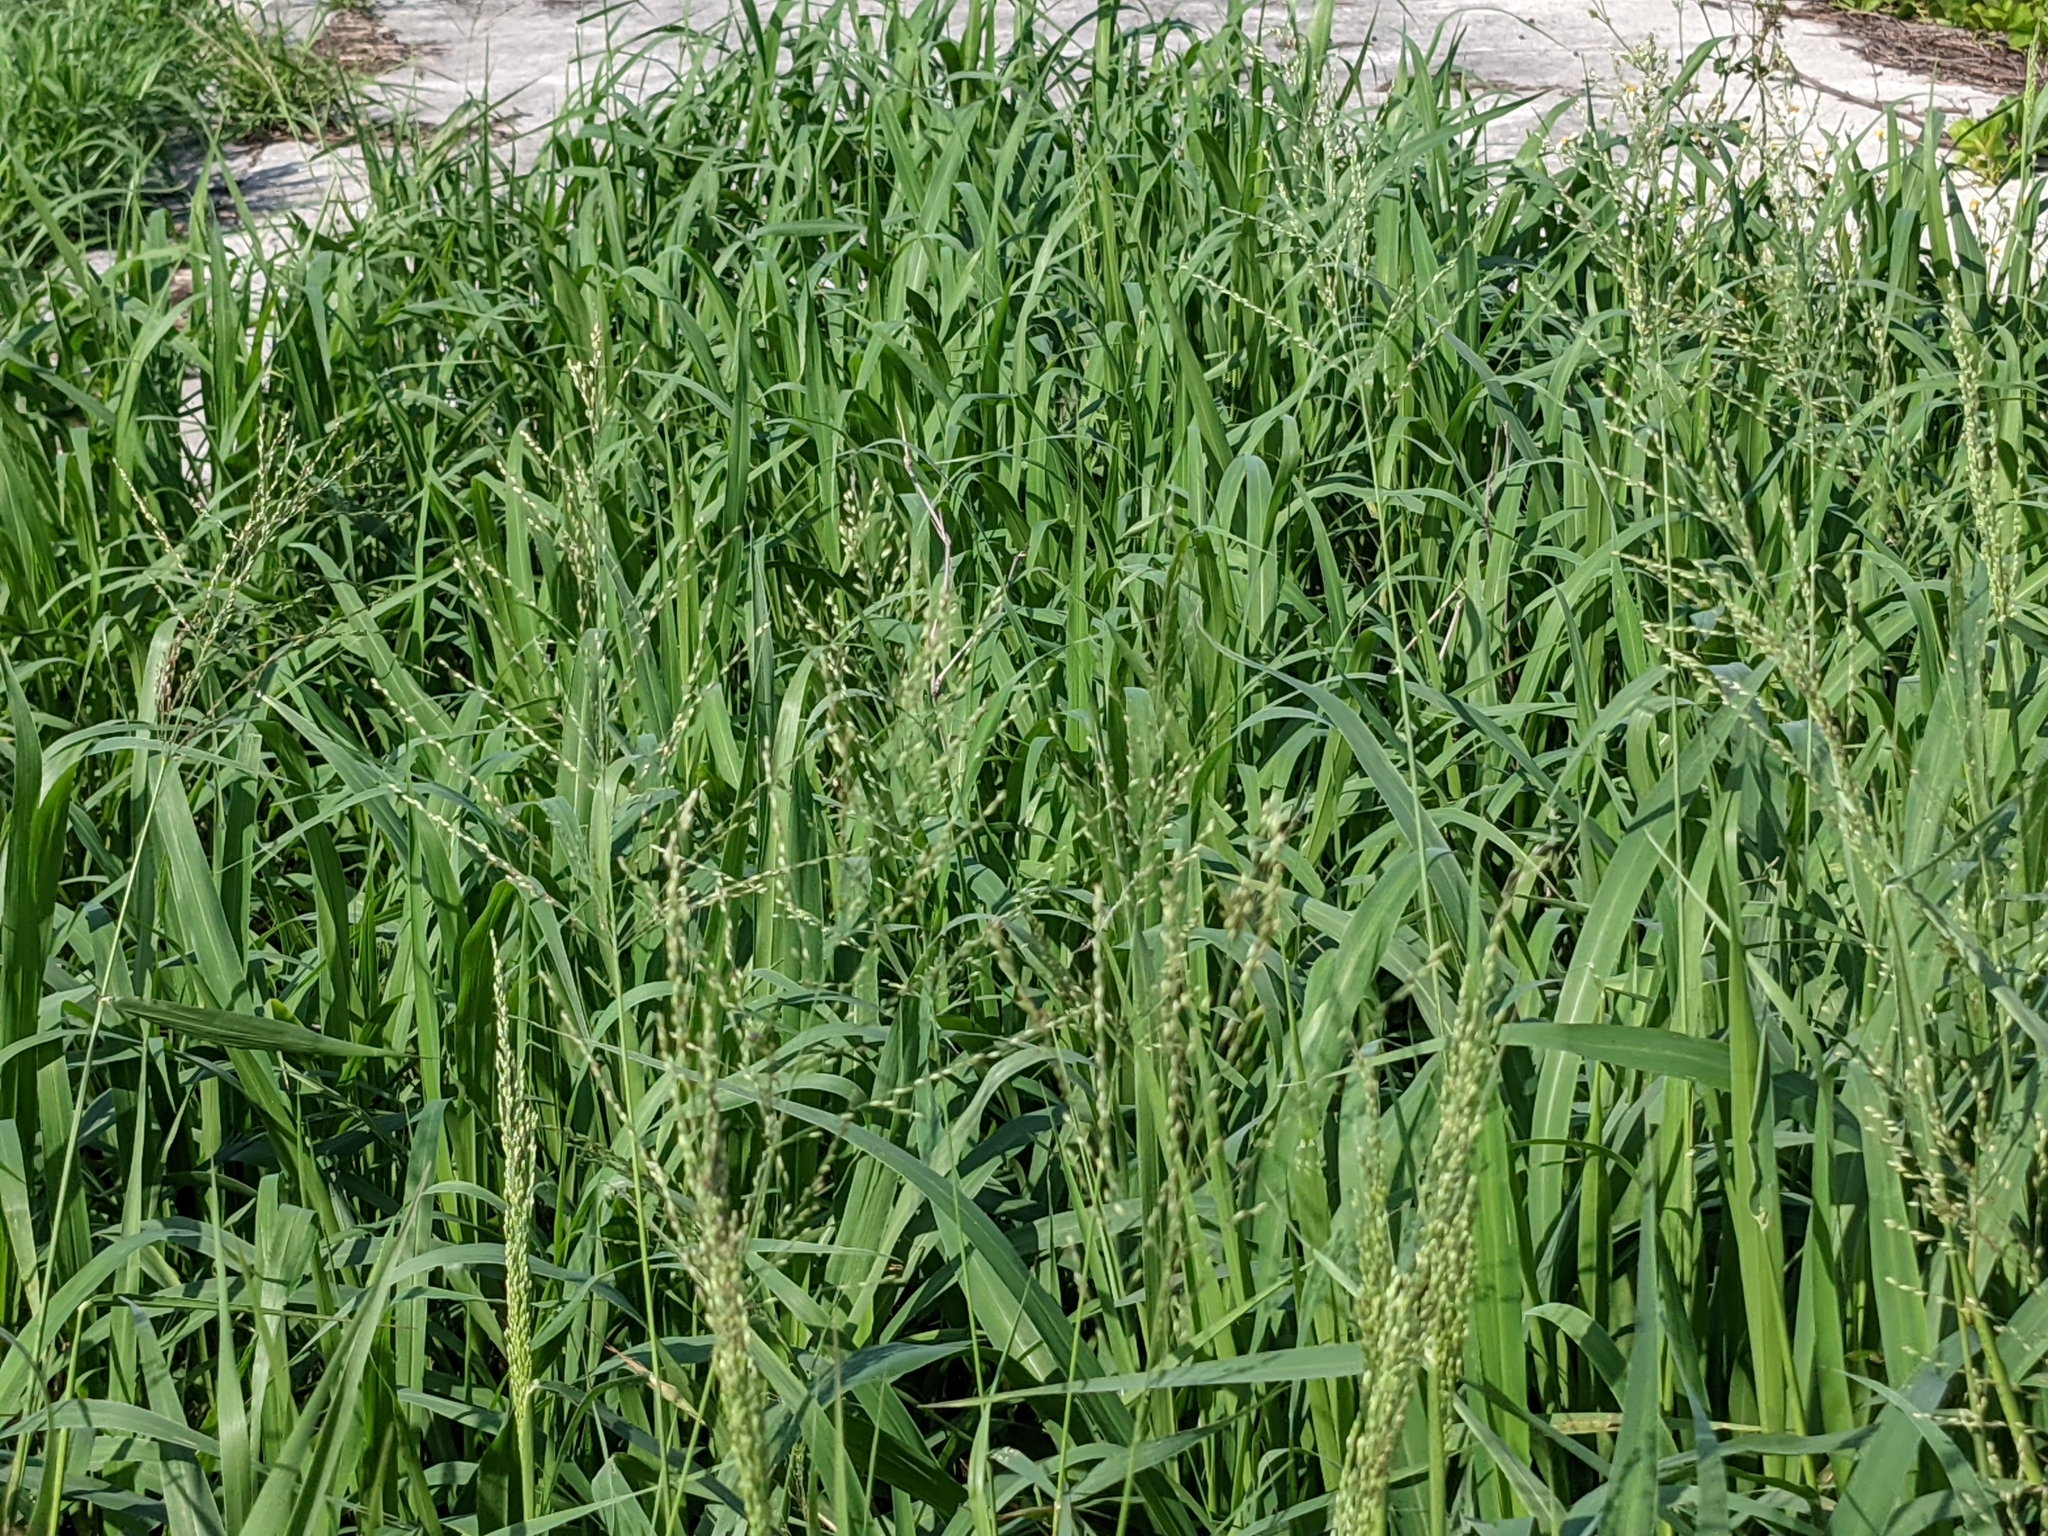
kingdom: Plantae
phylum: Tracheophyta
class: Liliopsida
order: Poales
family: Poaceae
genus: Megathyrsus
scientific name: Megathyrsus maximus
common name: Guineagrass
